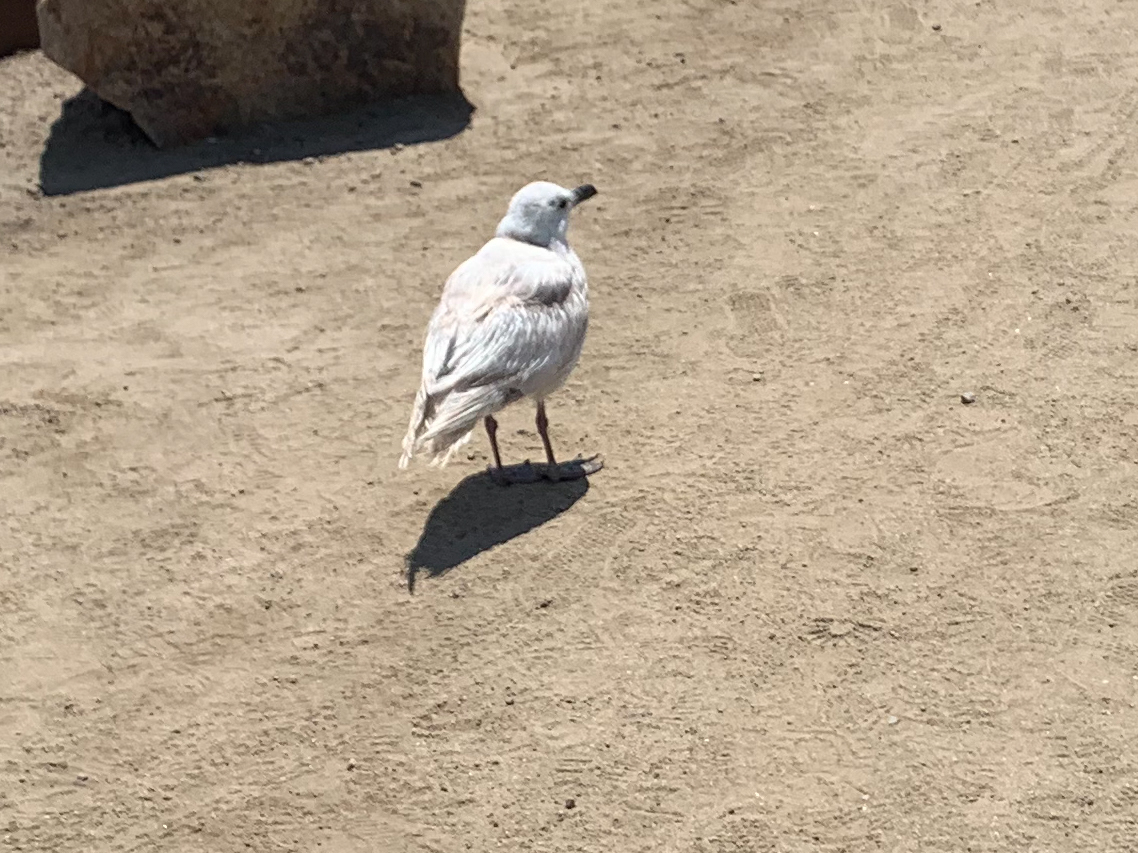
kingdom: Animalia
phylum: Chordata
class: Aves
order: Charadriiformes
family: Laridae
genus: Larus
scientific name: Larus glaucescens
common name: Glaucous-winged gull
